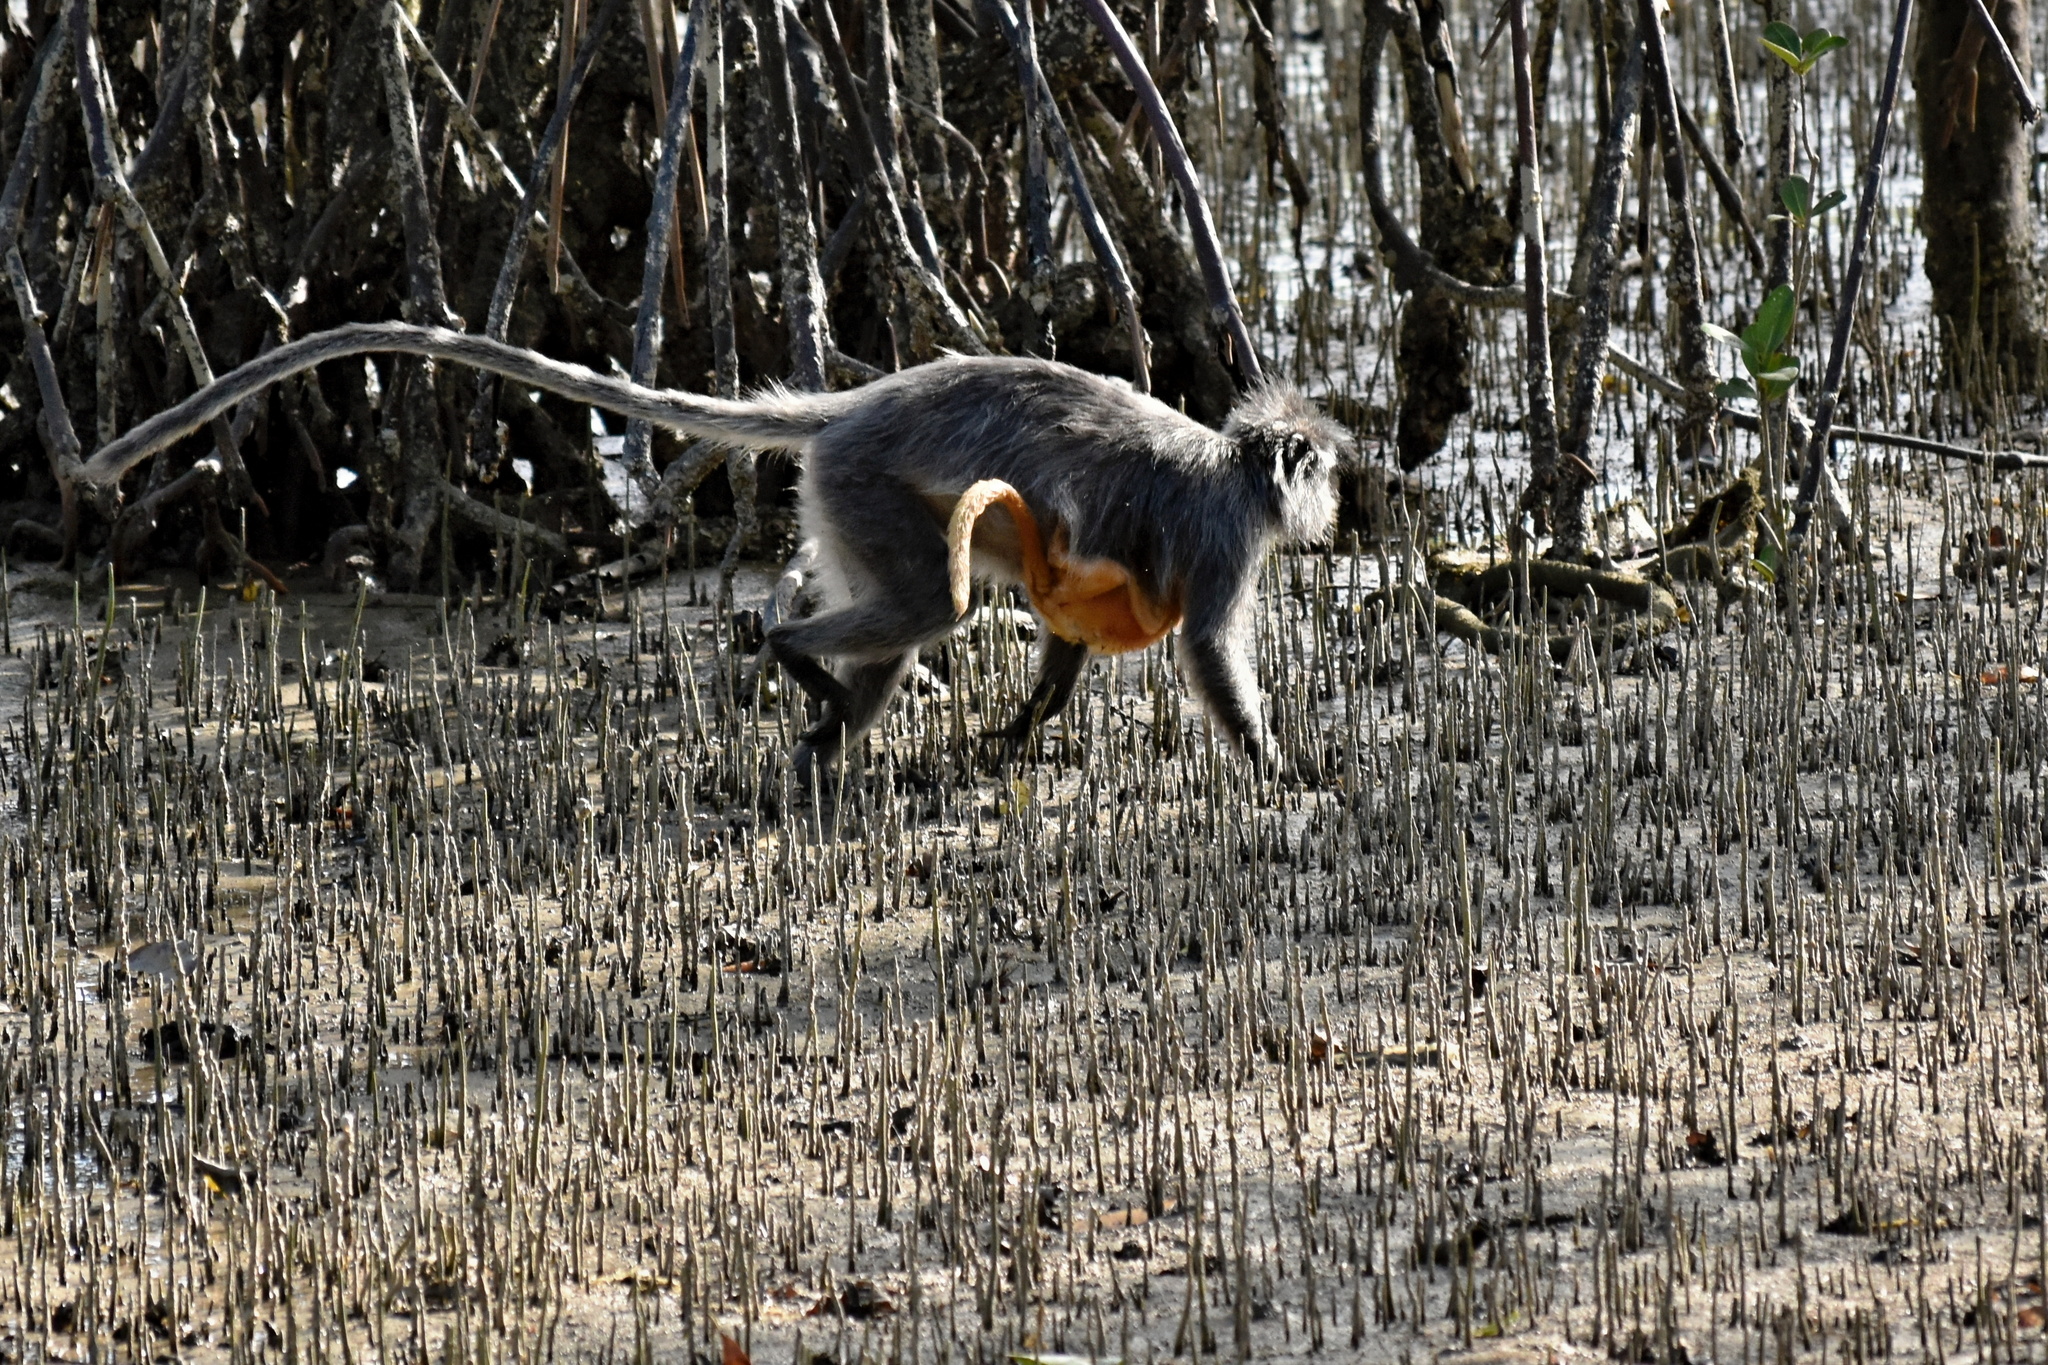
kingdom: Animalia
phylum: Chordata
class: Mammalia
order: Primates
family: Cercopithecidae
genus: Trachypithecus
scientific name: Trachypithecus cristatus
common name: Silvery lutung
